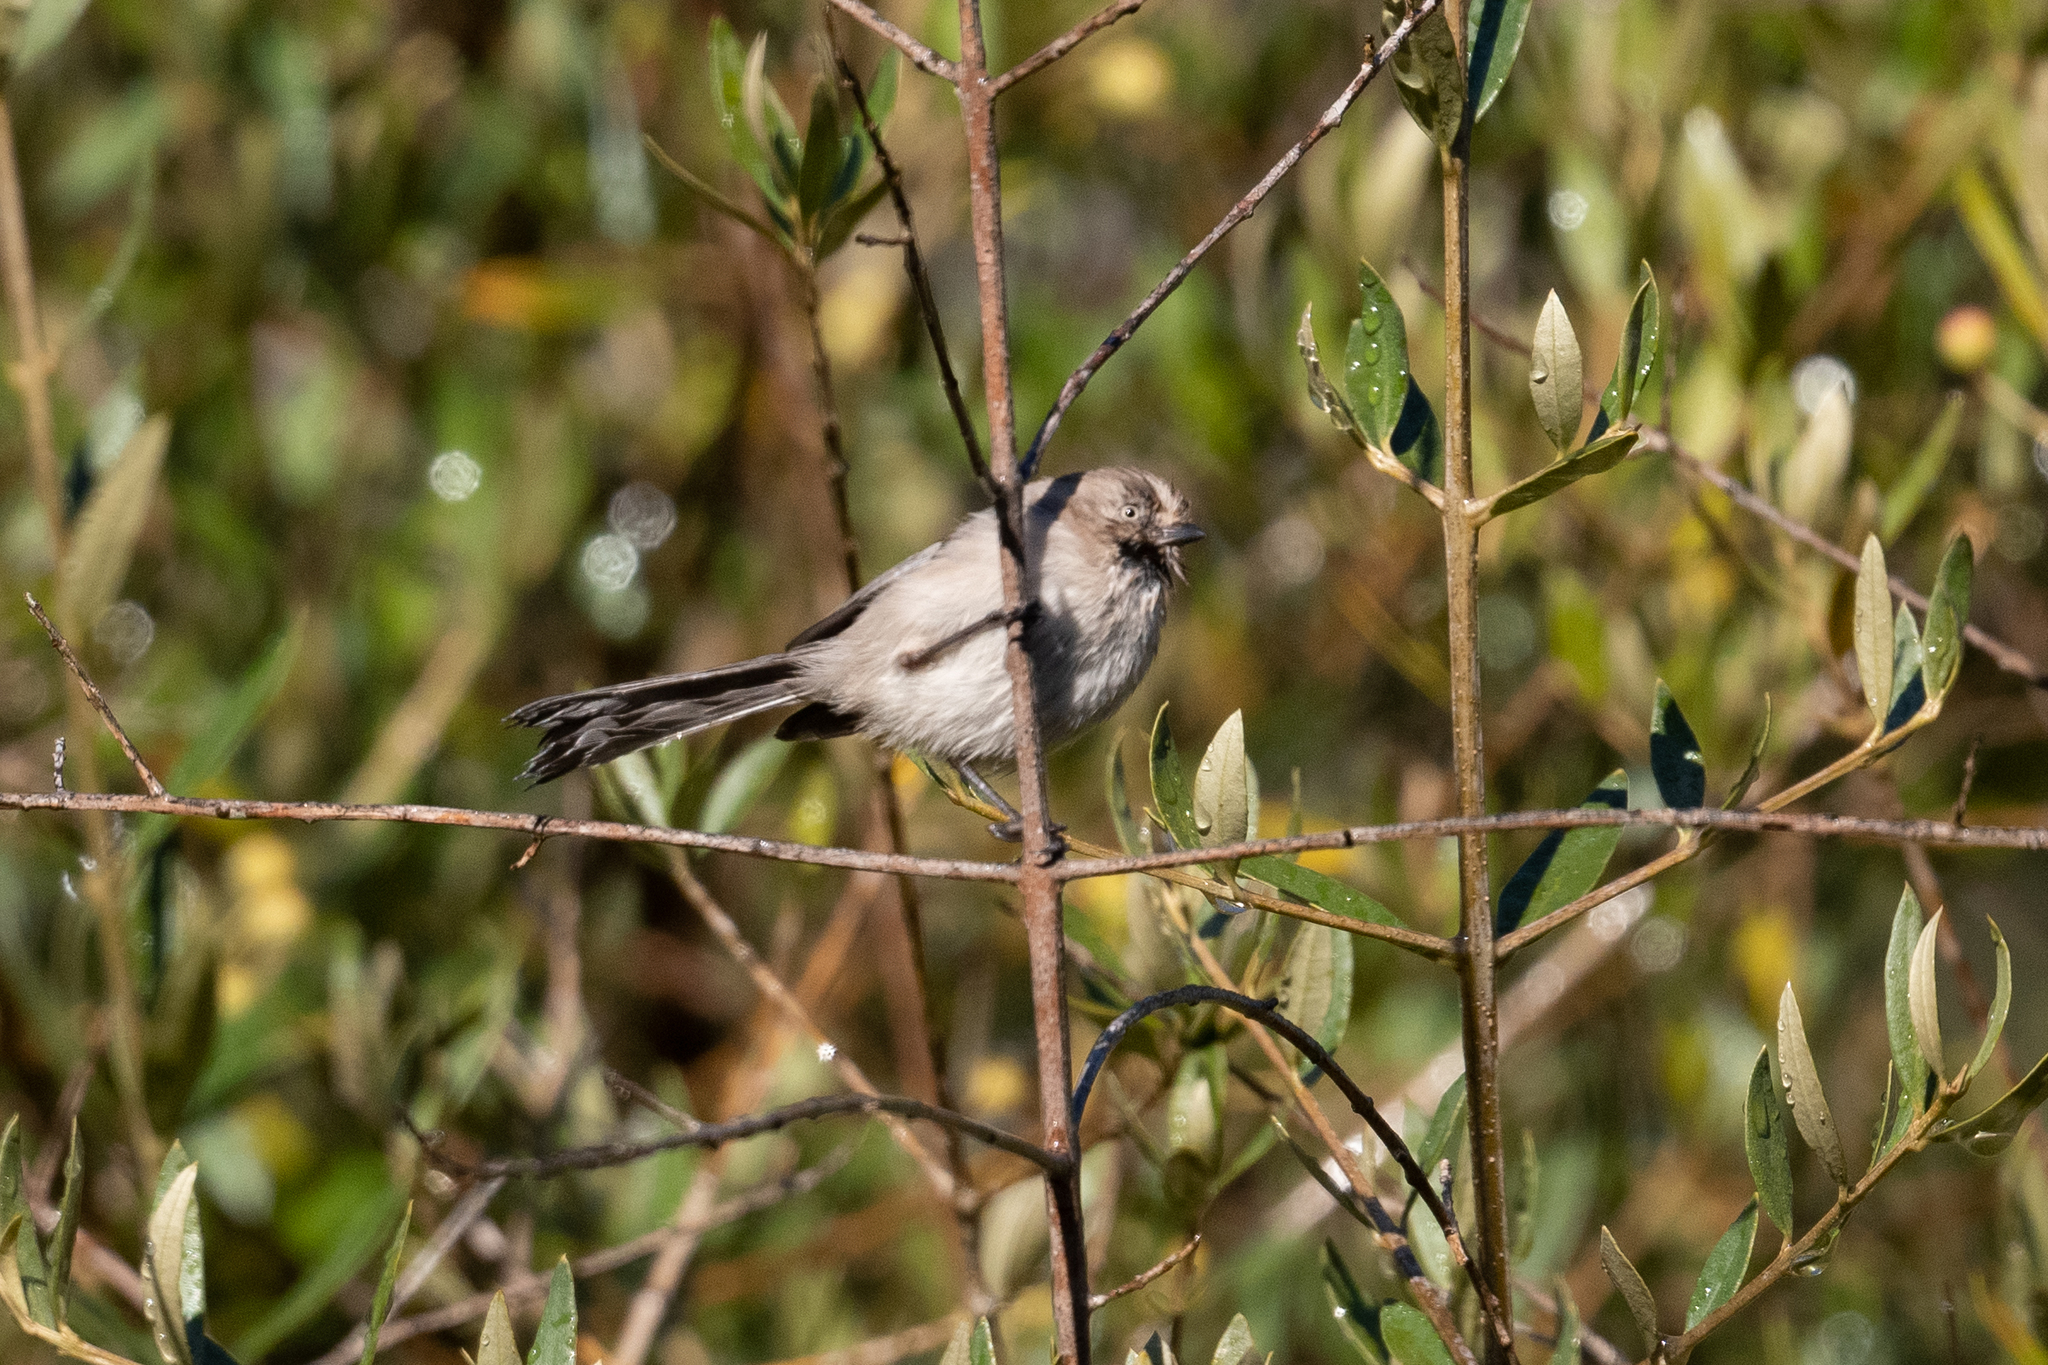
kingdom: Animalia
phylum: Chordata
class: Aves
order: Passeriformes
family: Aegithalidae
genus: Psaltriparus
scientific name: Psaltriparus minimus
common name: American bushtit
